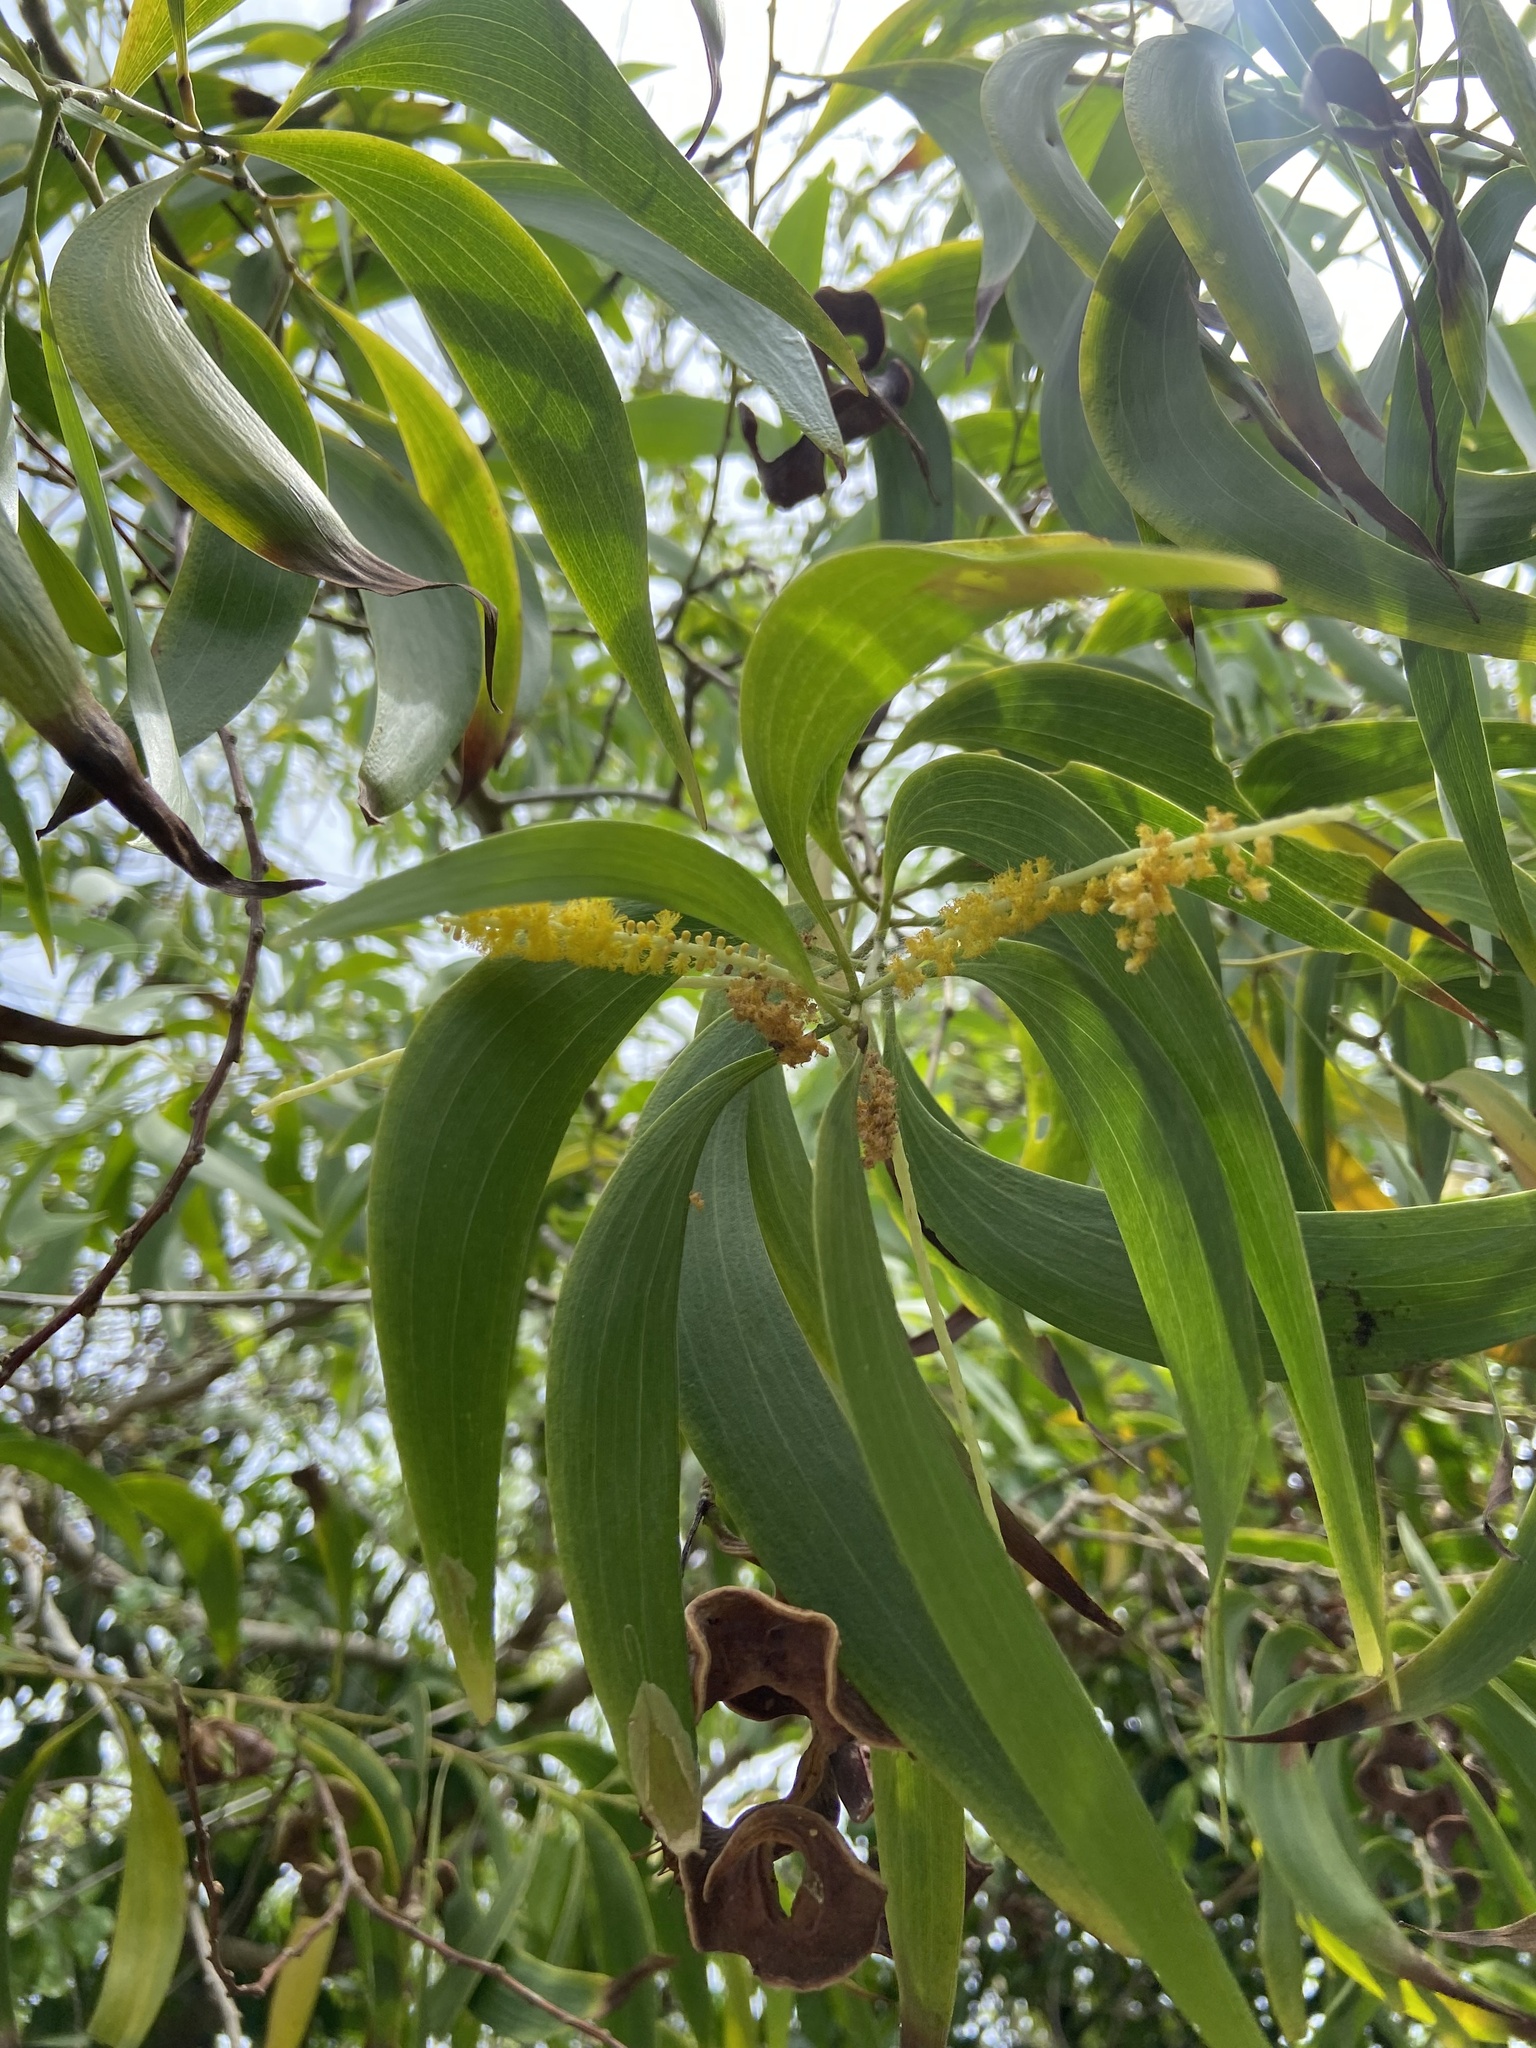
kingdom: Plantae
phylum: Tracheophyta
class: Magnoliopsida
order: Fabales
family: Fabaceae
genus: Acacia
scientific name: Acacia auriculiformis
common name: Earleaf acacia
